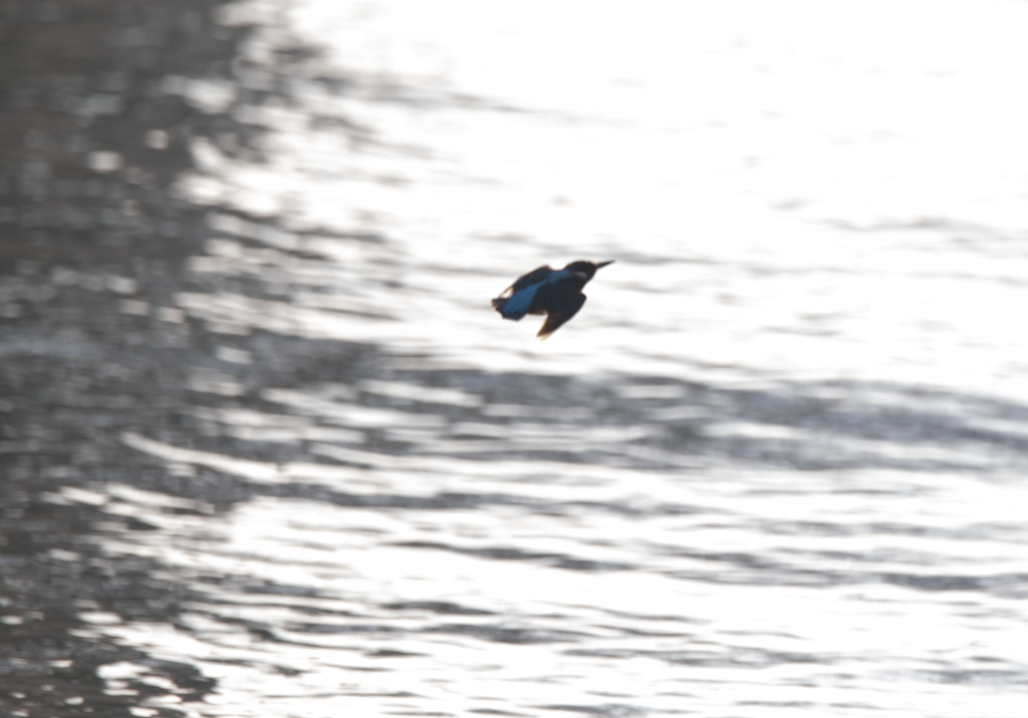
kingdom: Animalia
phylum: Chordata
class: Aves
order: Coraciiformes
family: Alcedinidae
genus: Alcedo
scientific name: Alcedo atthis
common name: Common kingfisher
